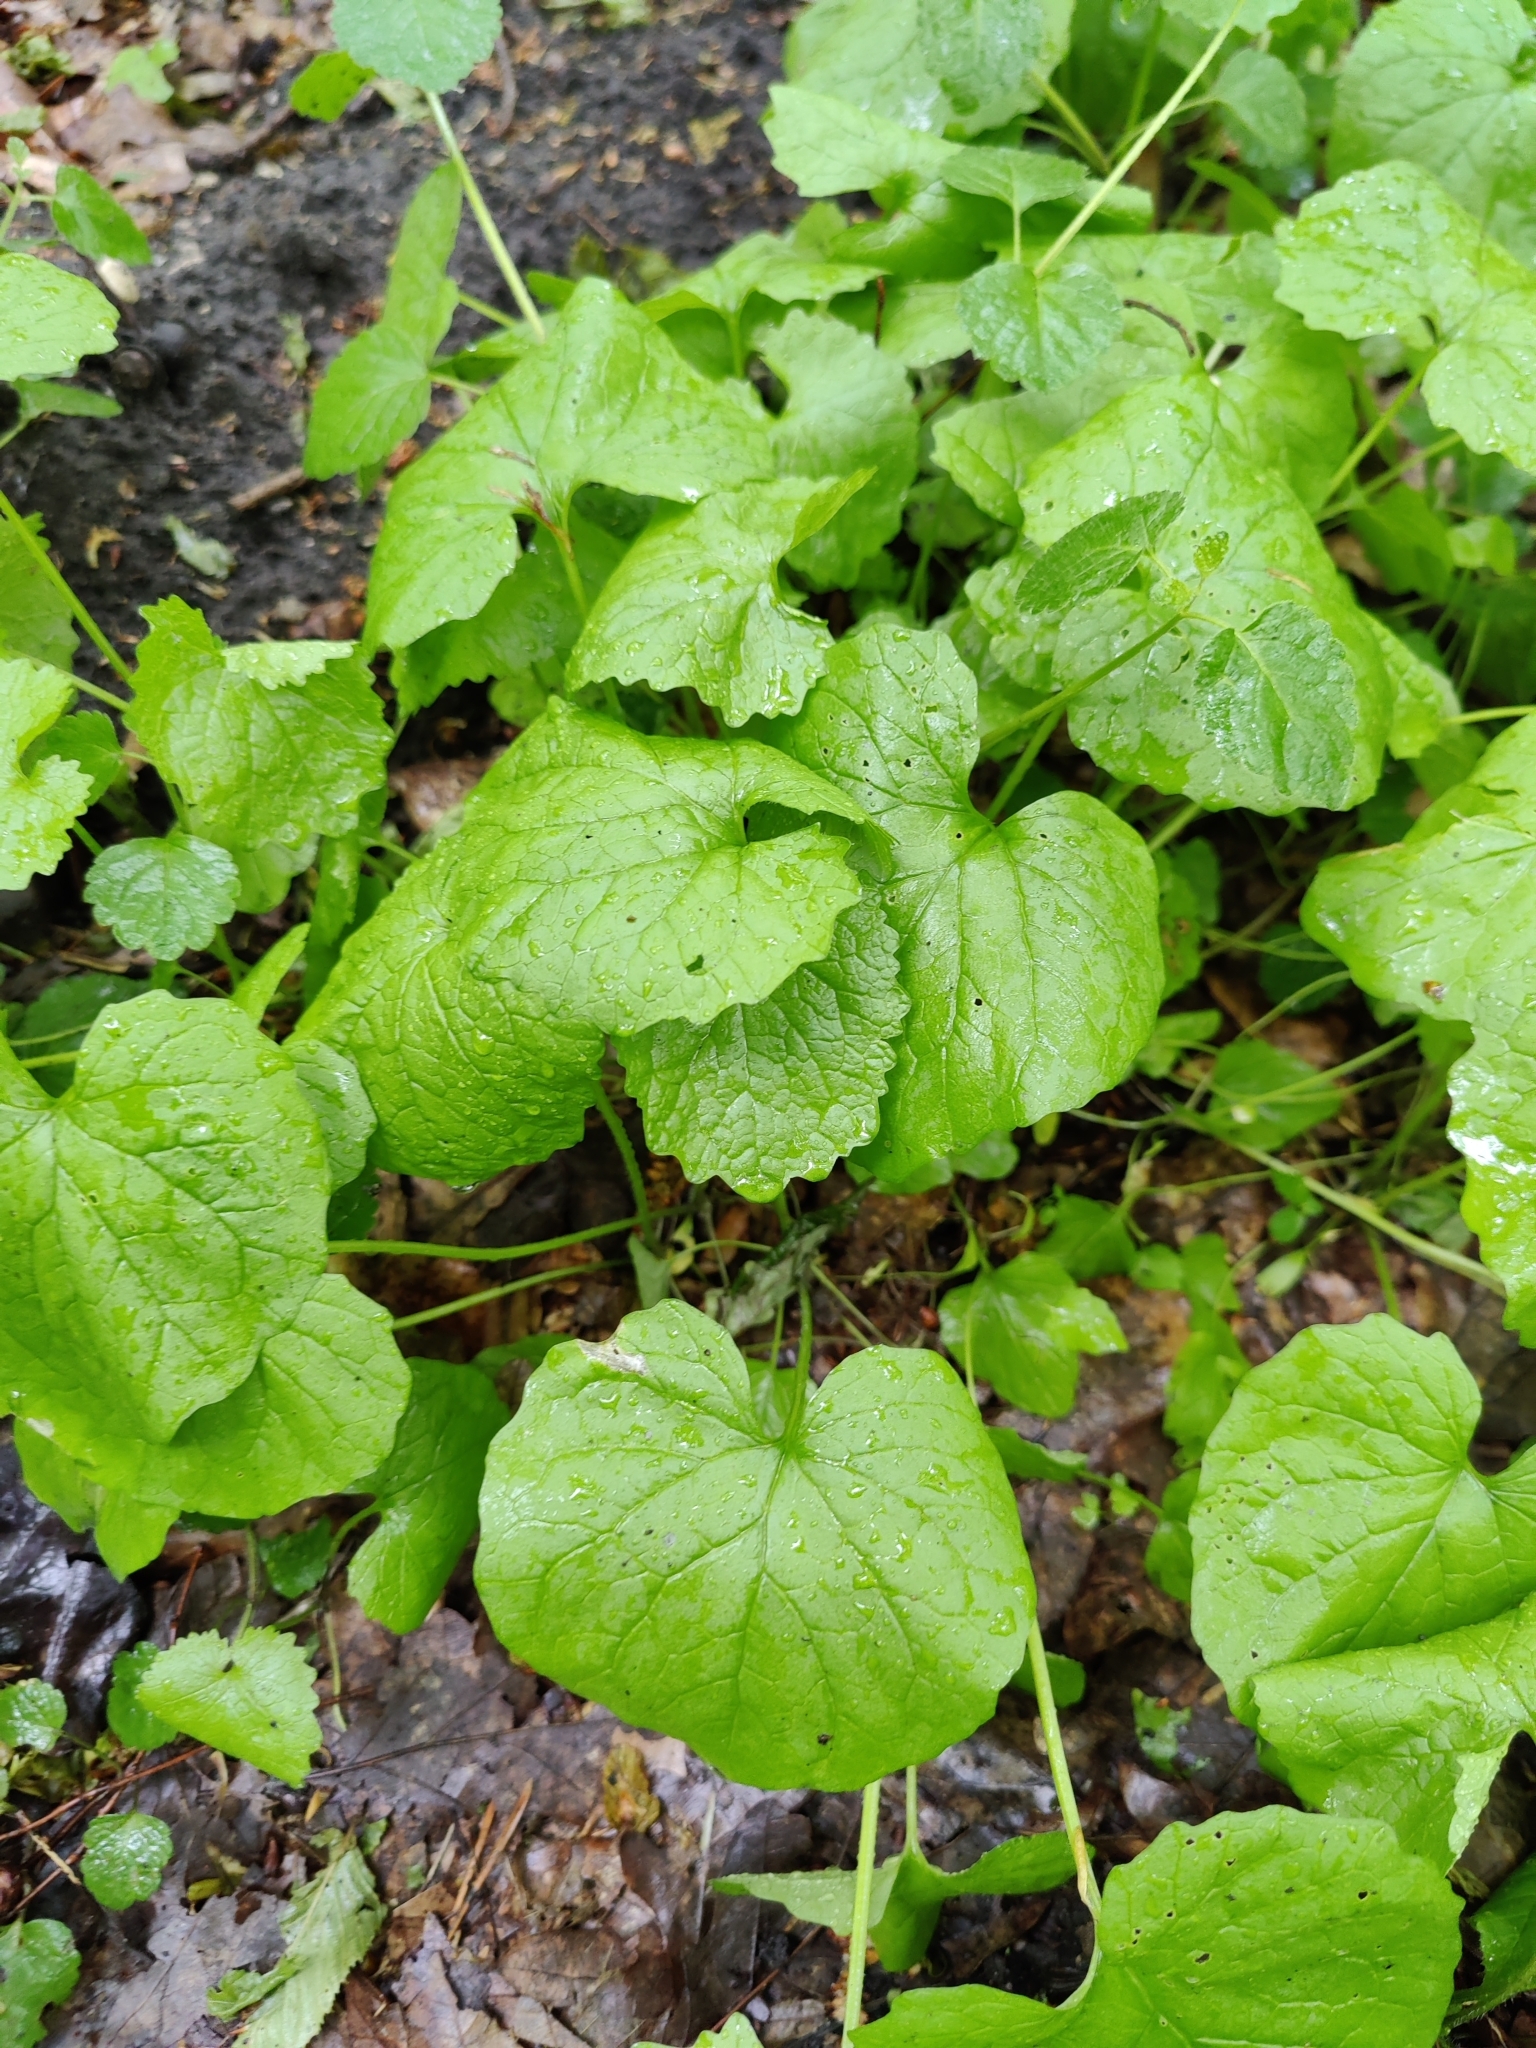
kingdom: Plantae
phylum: Tracheophyta
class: Magnoliopsida
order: Brassicales
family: Brassicaceae
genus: Alliaria
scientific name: Alliaria petiolata
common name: Garlic mustard
